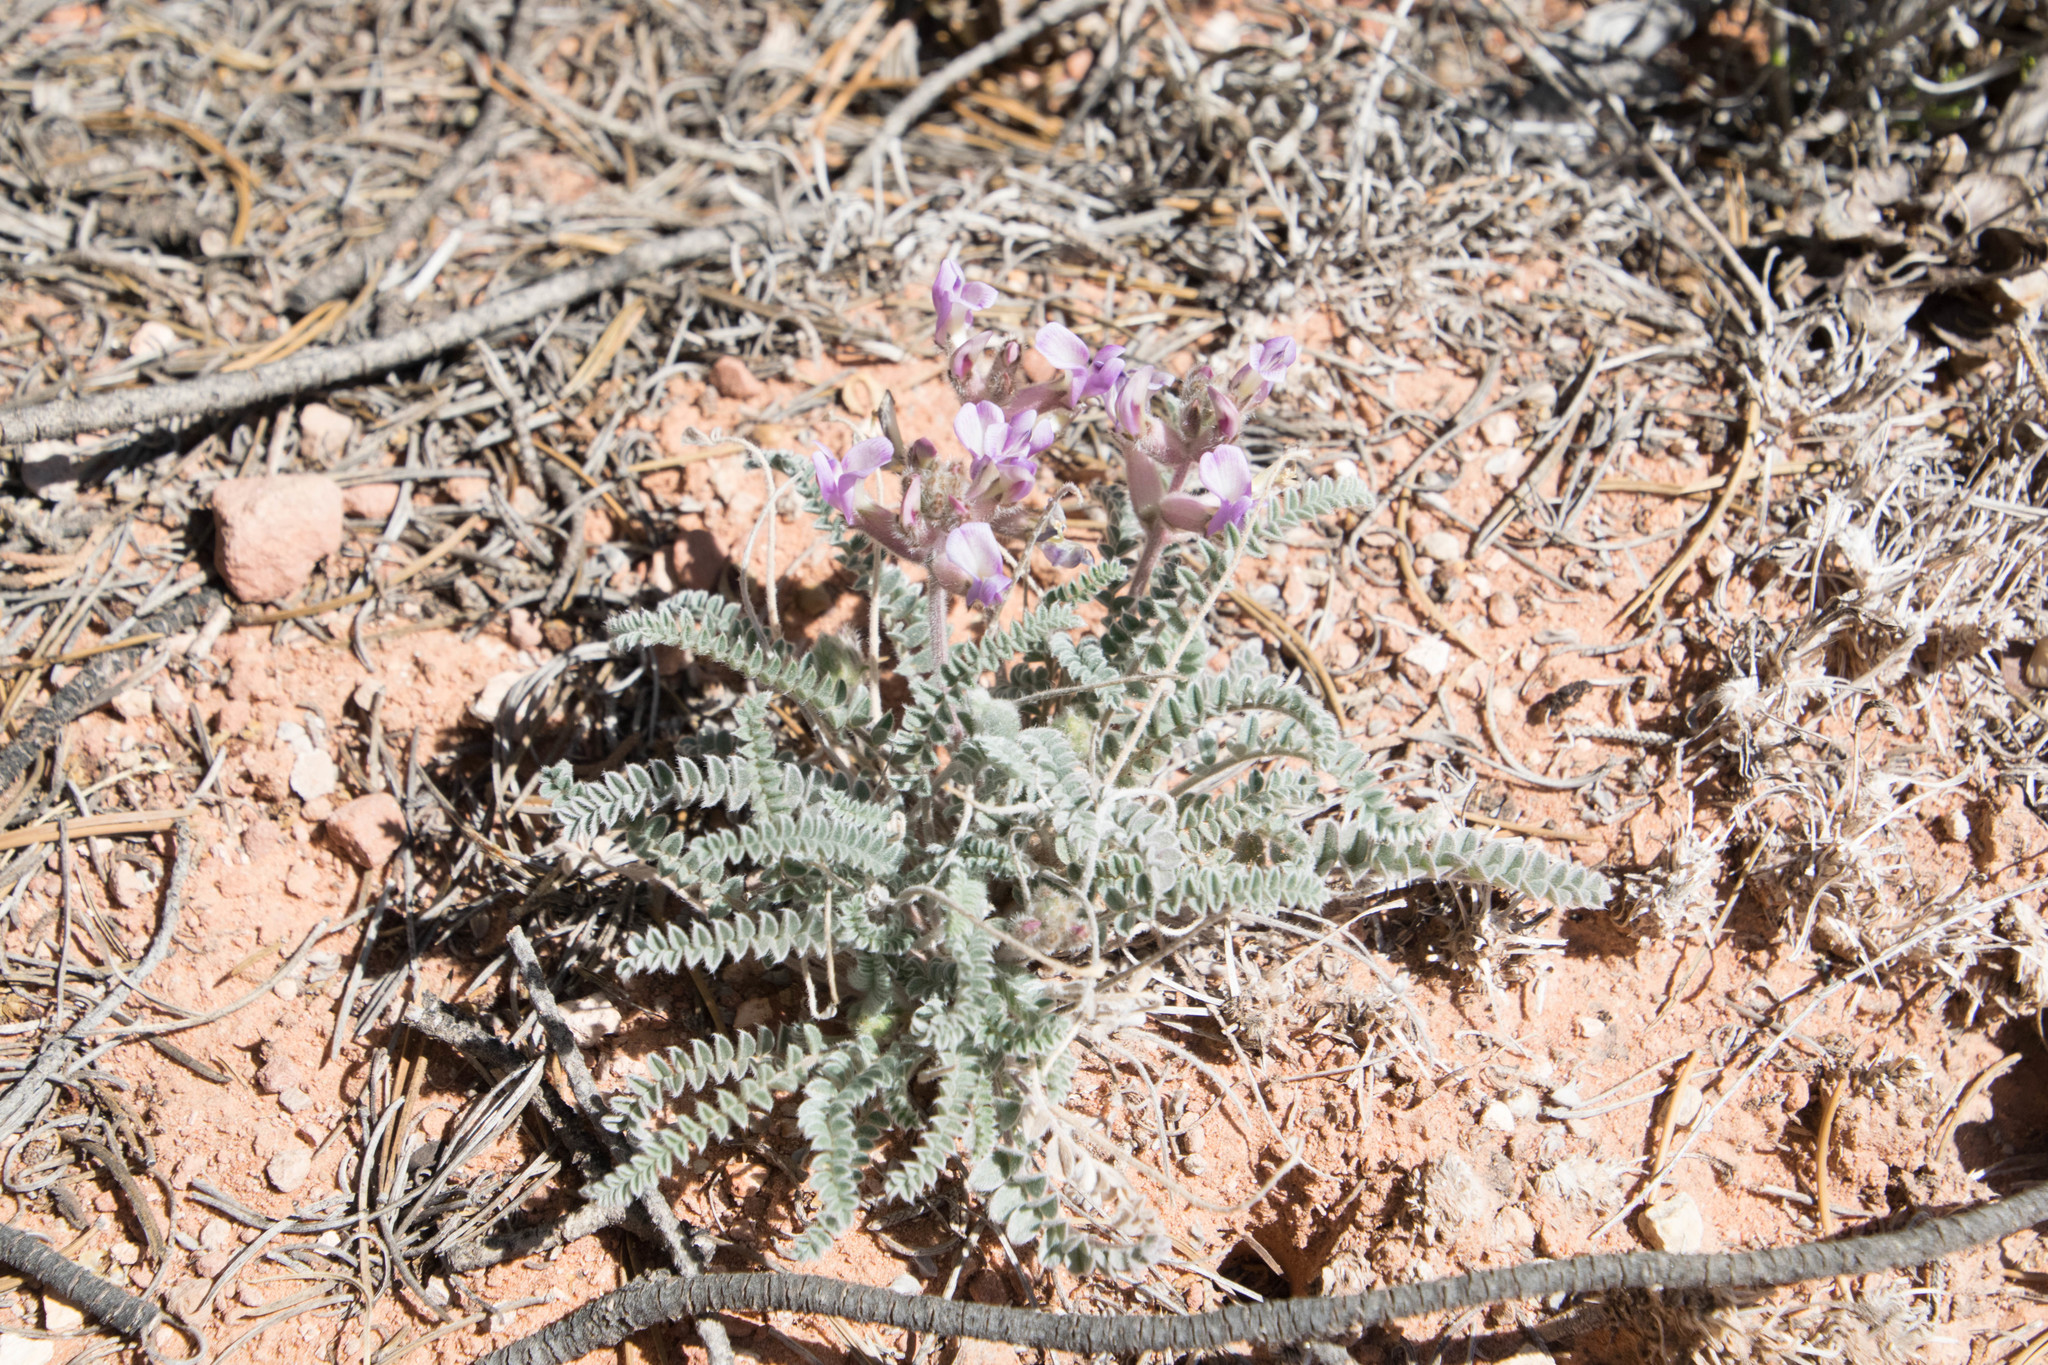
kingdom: Plantae
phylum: Tracheophyta
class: Magnoliopsida
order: Fabales
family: Fabaceae
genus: Astragalus
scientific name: Astragalus mollissimus
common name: Woolly locoweed
